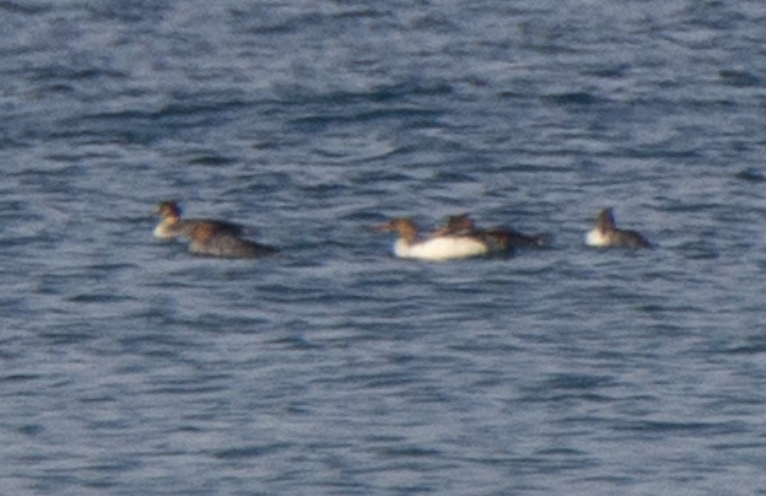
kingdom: Animalia
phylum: Chordata
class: Aves
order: Anseriformes
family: Anatidae
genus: Mergus
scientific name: Mergus serrator
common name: Red-breasted merganser
